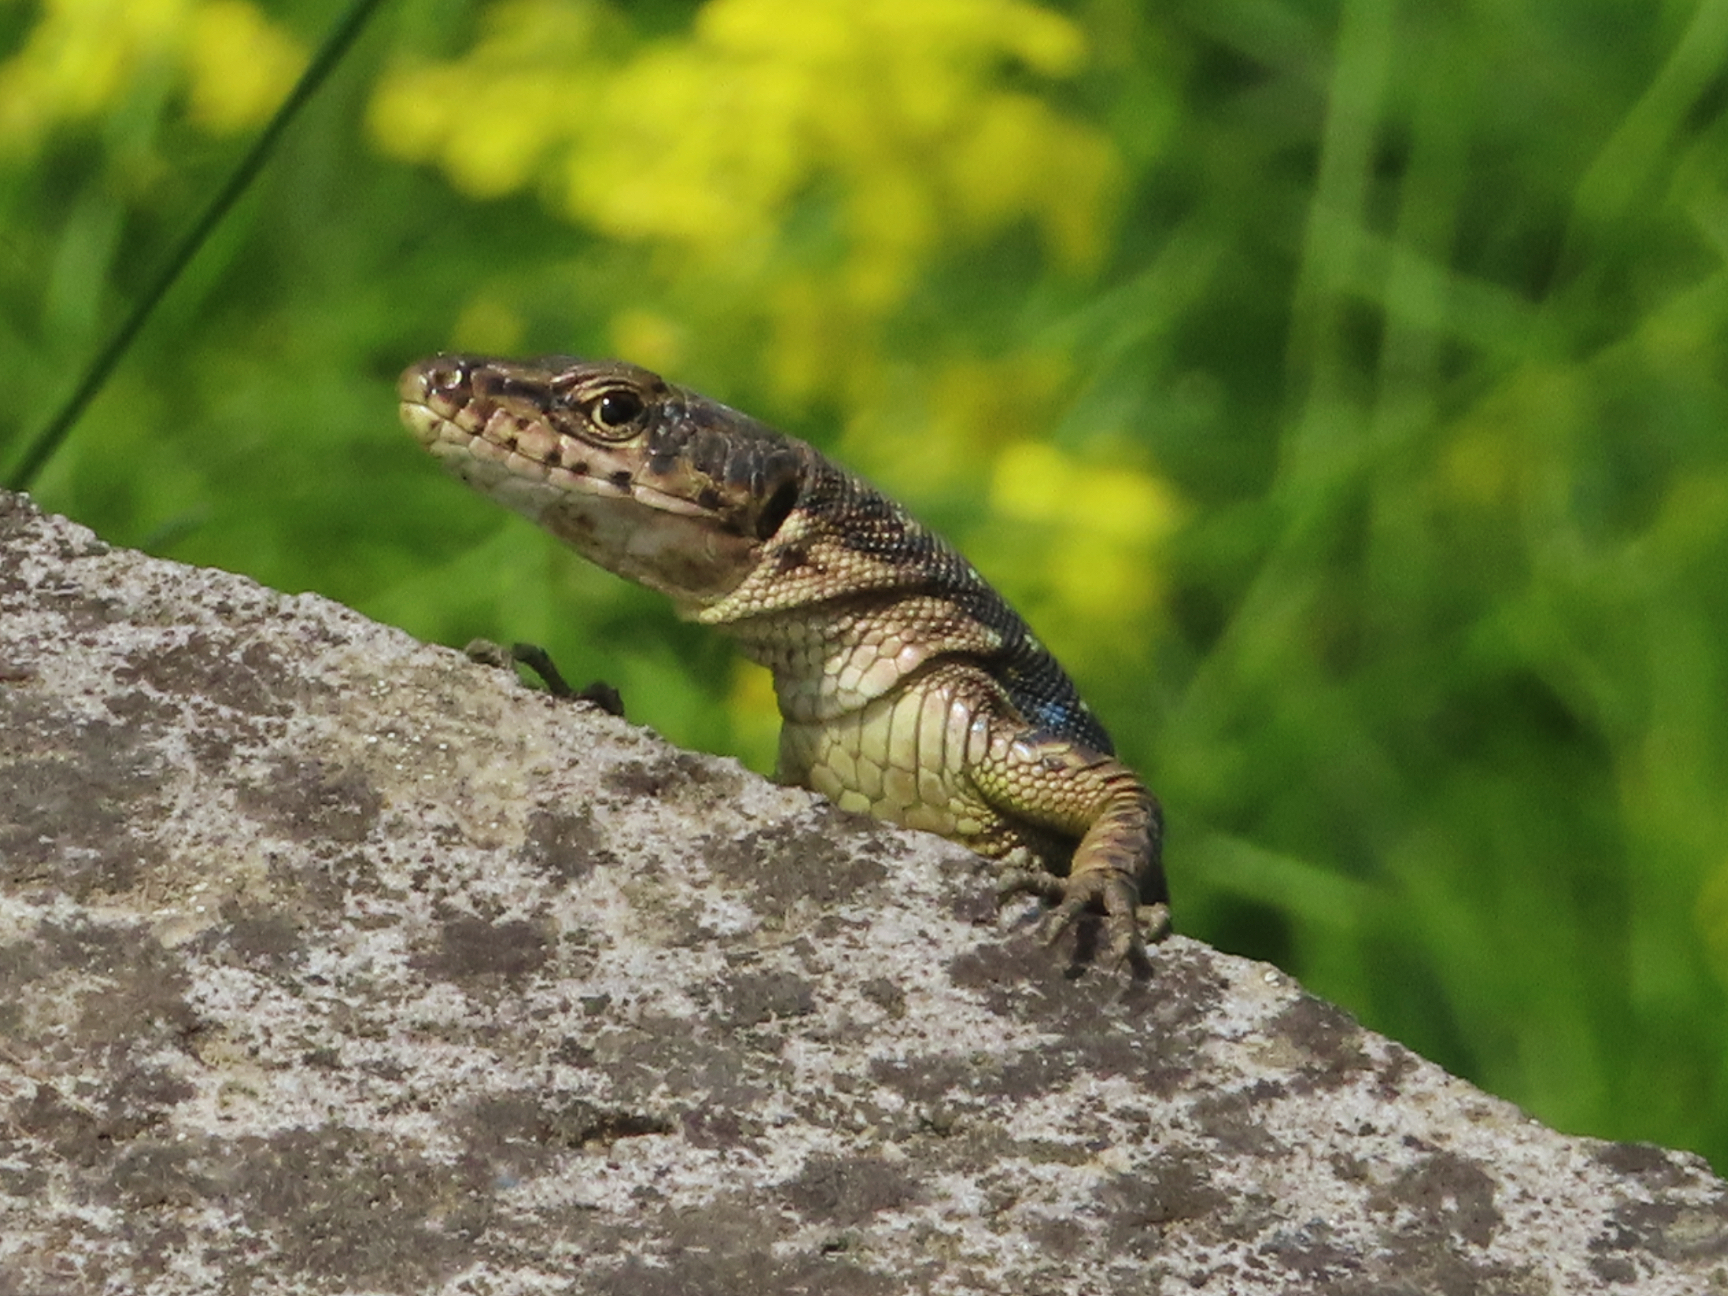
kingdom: Animalia
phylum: Chordata
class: Squamata
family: Lacertidae
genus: Darevskia
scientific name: Darevskia armeniaca
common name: Armenian lizard
